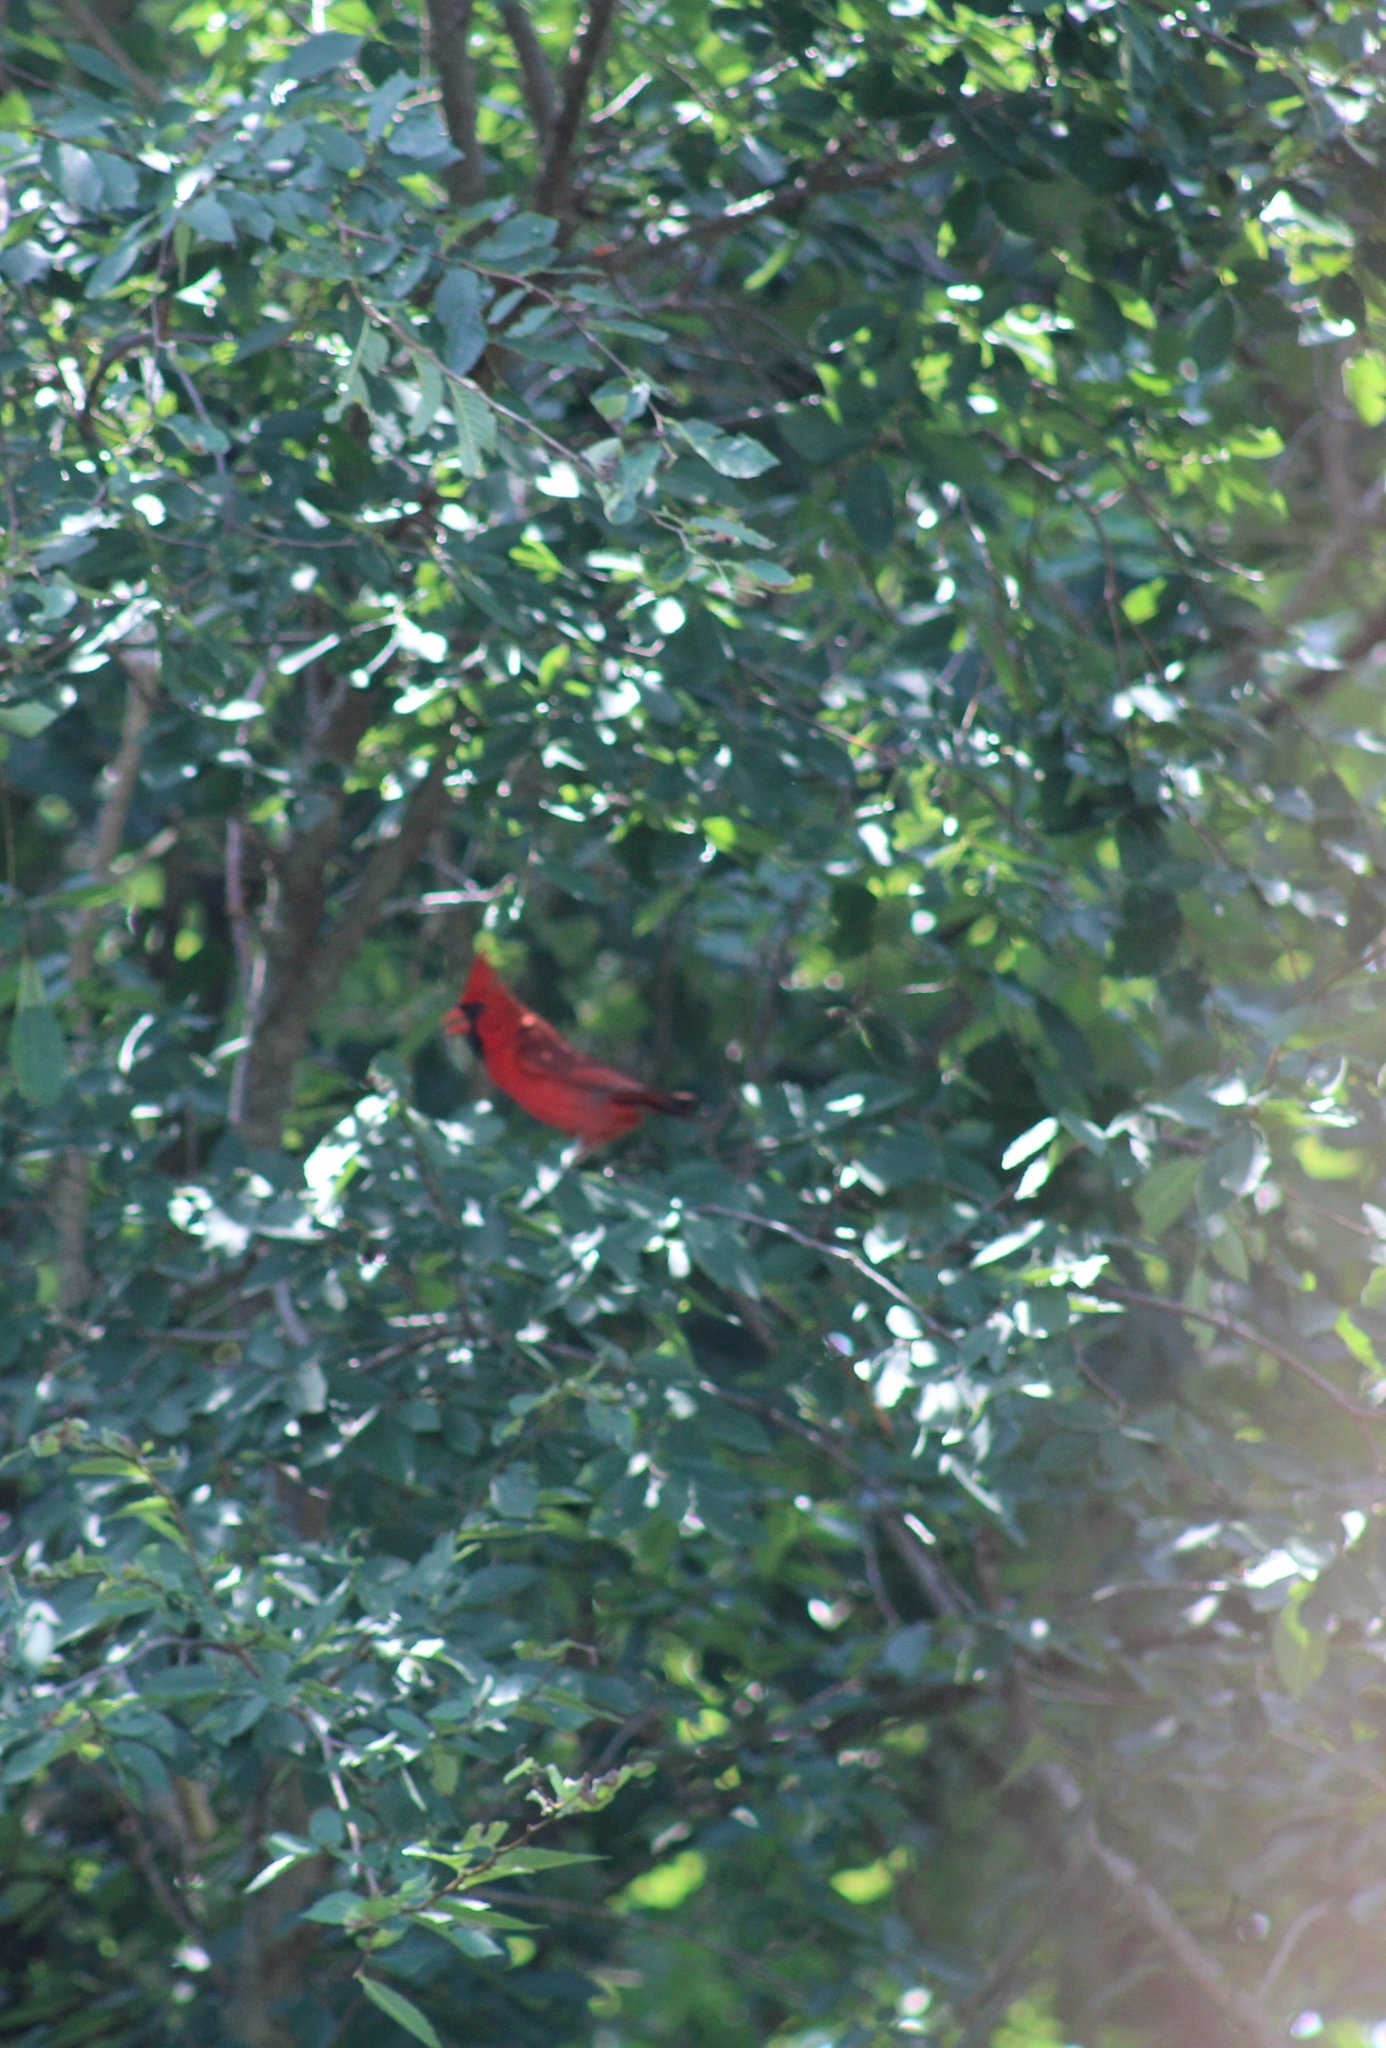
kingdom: Animalia
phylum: Chordata
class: Aves
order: Passeriformes
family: Cardinalidae
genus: Cardinalis
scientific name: Cardinalis cardinalis
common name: Northern cardinal
